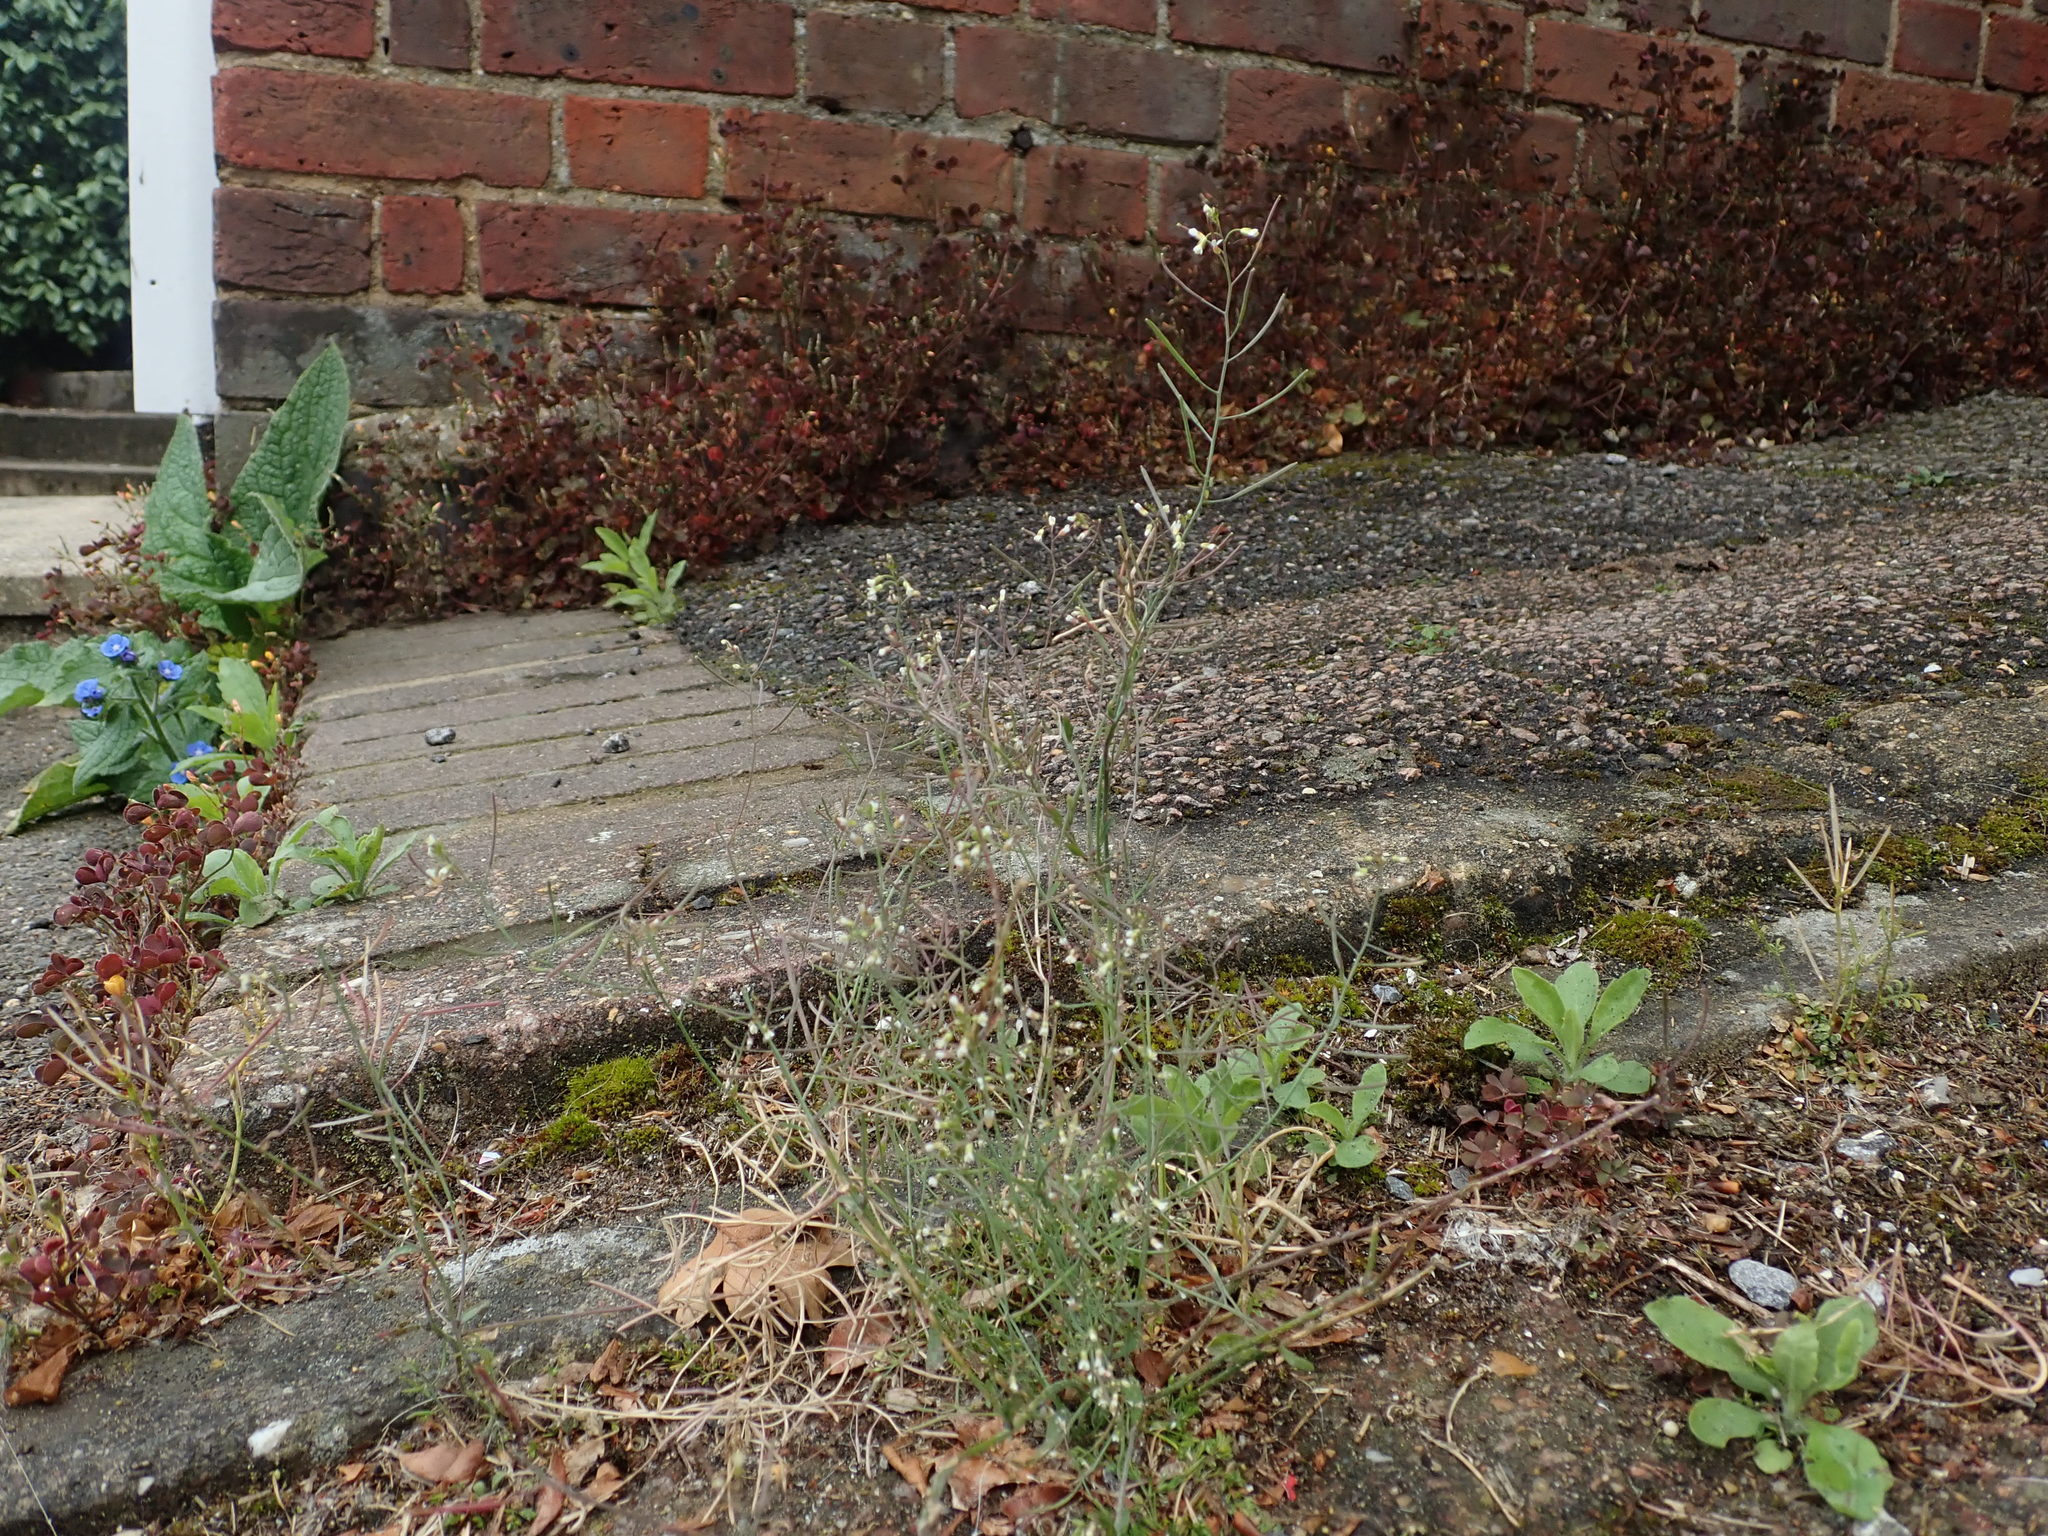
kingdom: Plantae
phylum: Tracheophyta
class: Magnoliopsida
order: Brassicales
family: Brassicaceae
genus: Arabidopsis
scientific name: Arabidopsis thaliana
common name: Thale cress
